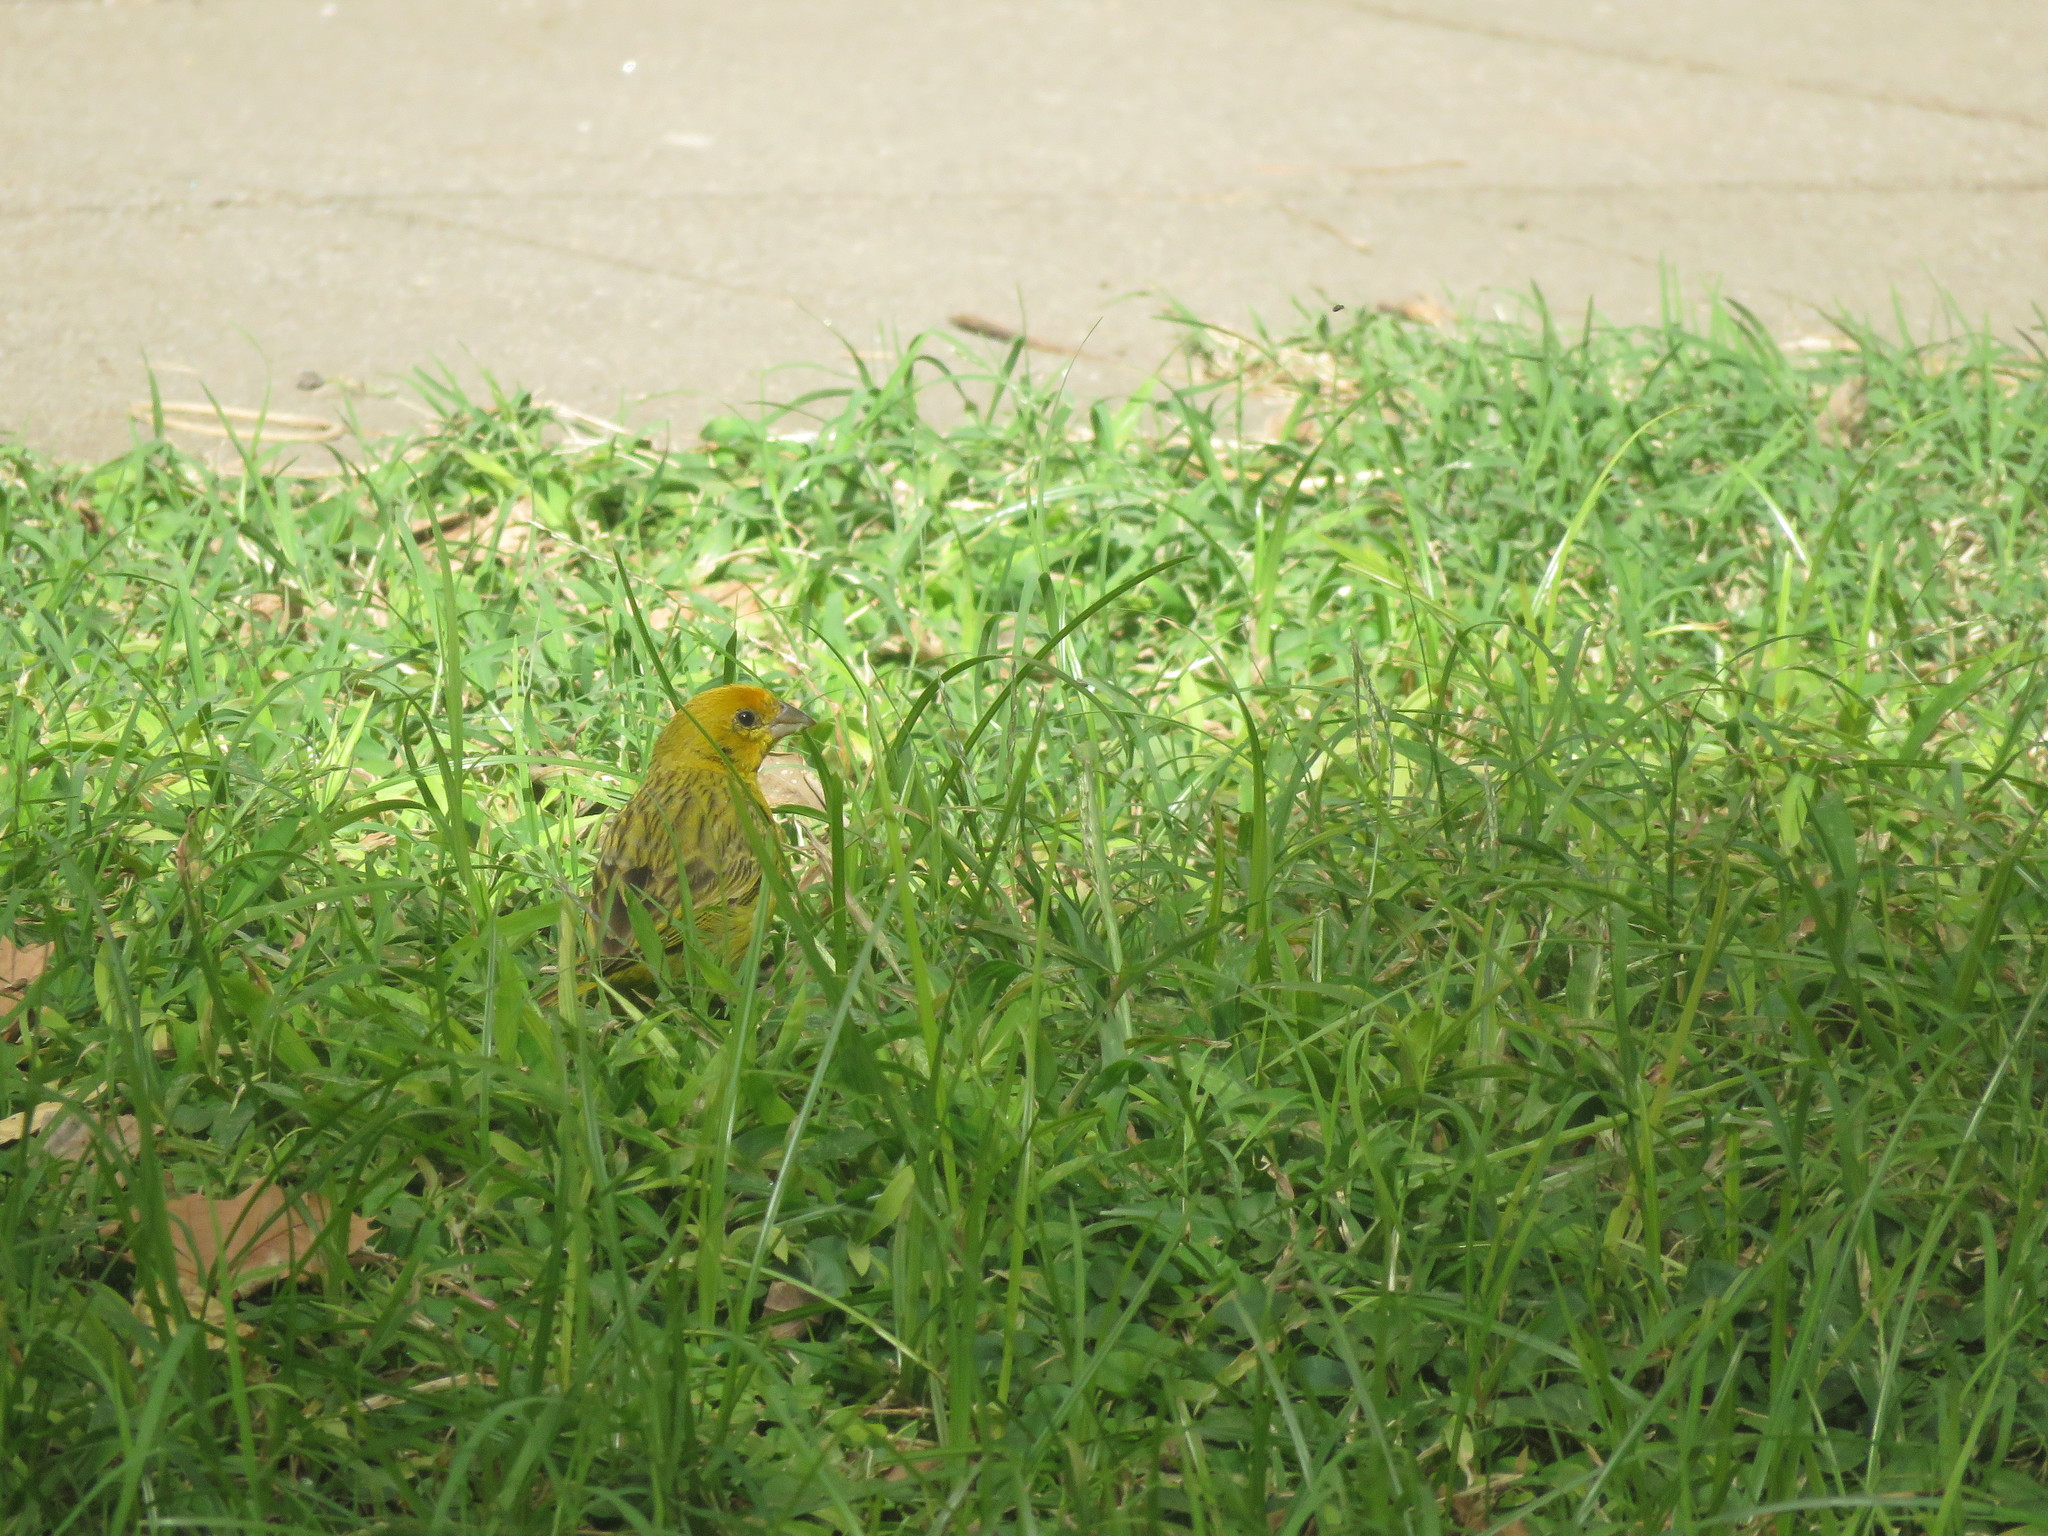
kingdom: Animalia
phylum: Chordata
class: Aves
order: Passeriformes
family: Thraupidae
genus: Sicalis
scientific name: Sicalis flaveola
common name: Saffron finch
